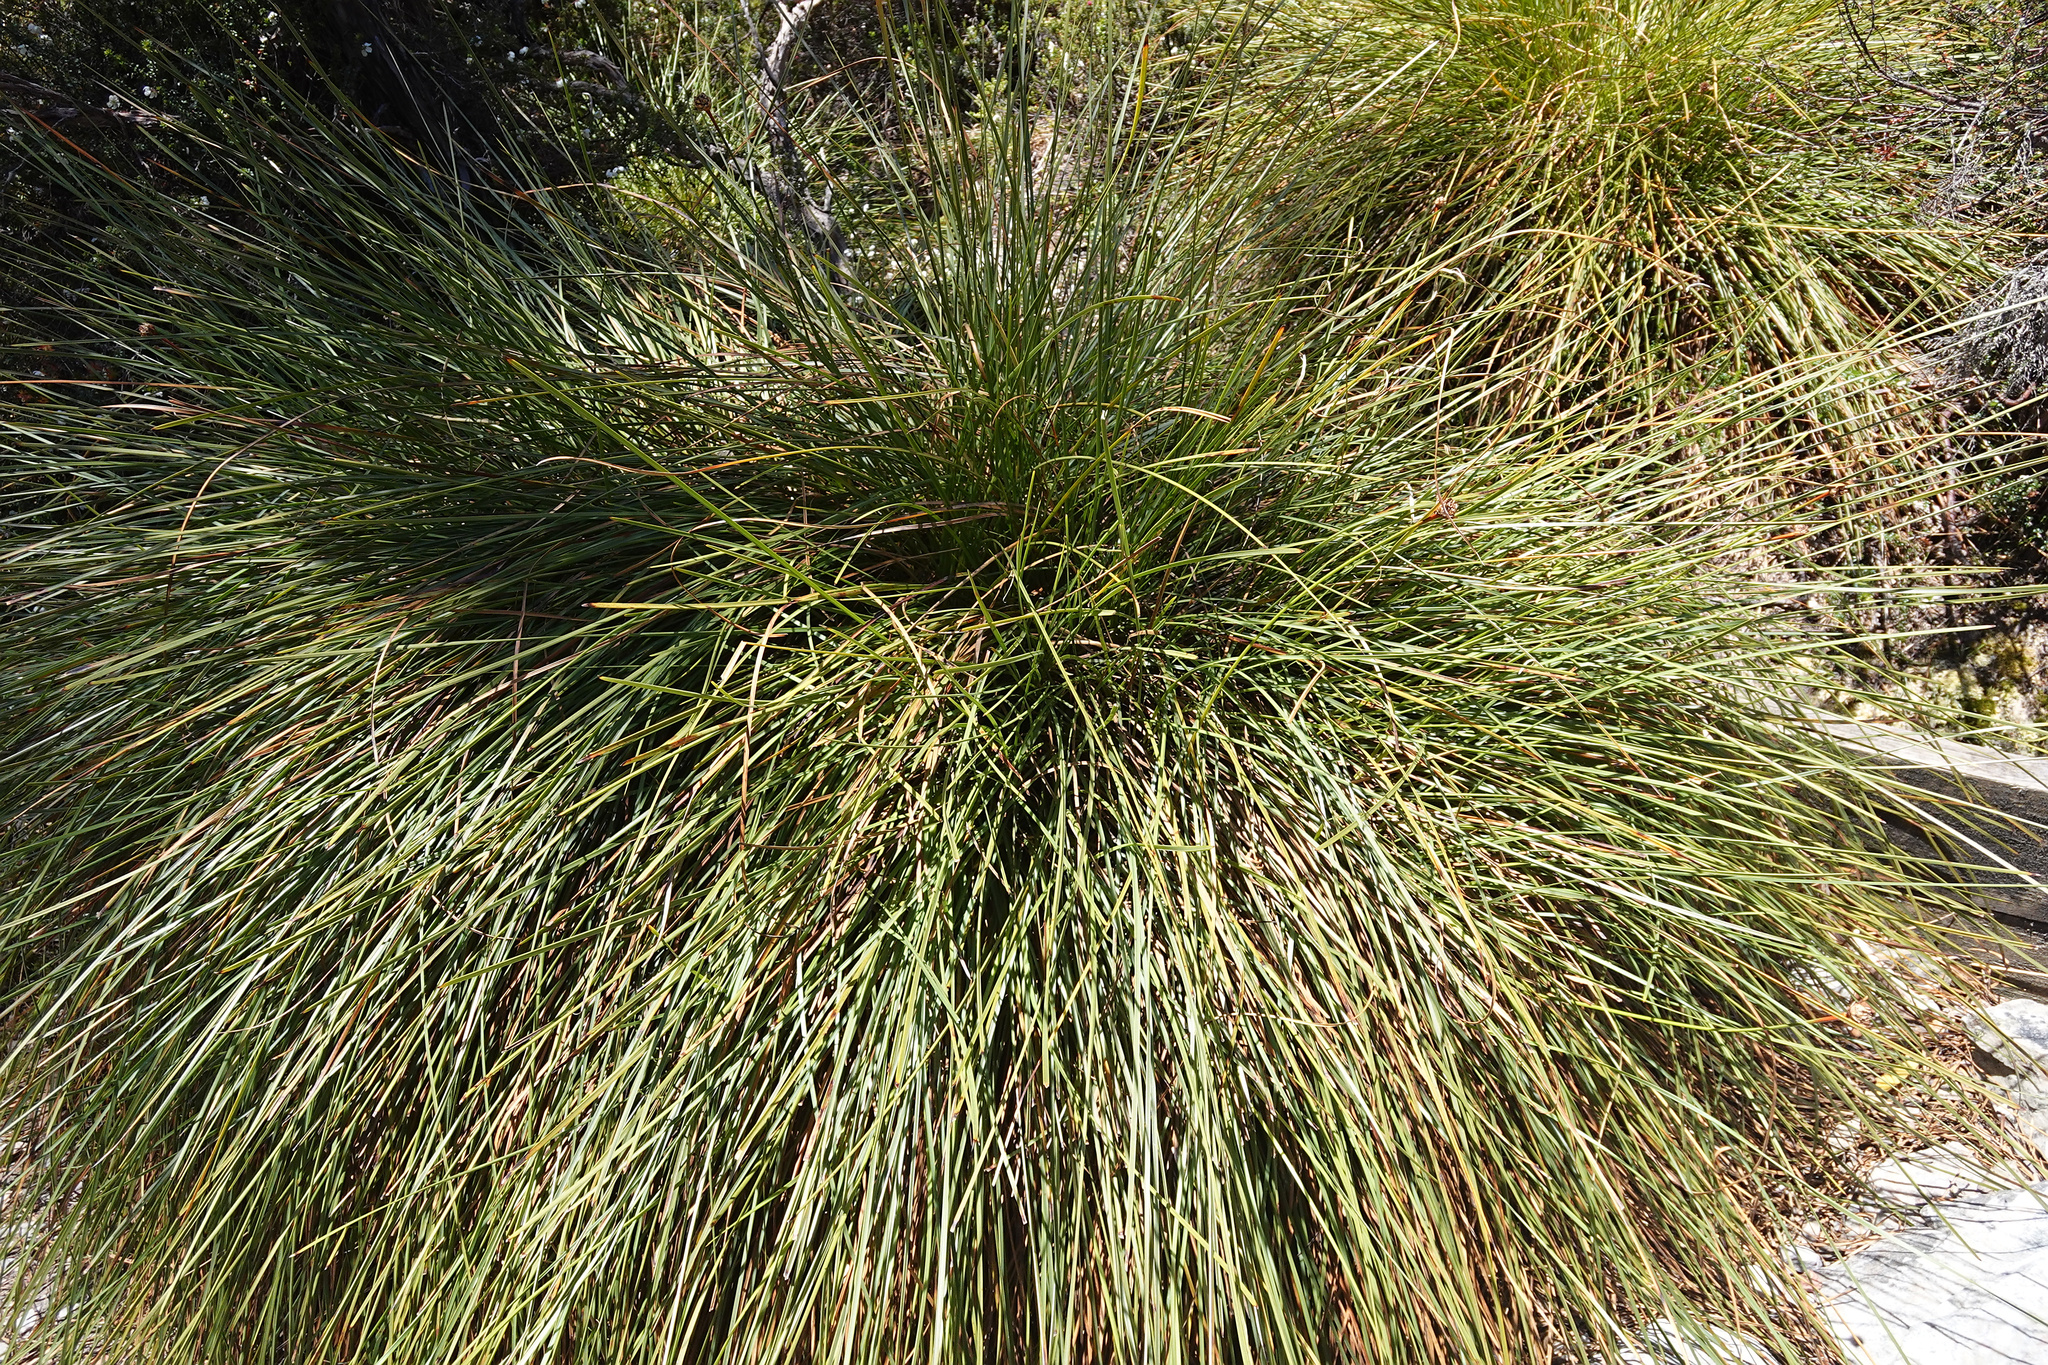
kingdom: Plantae
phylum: Tracheophyta
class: Liliopsida
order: Poales
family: Cyperaceae
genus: Gymnoschoenus
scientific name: Gymnoschoenus sphaerocephalus
